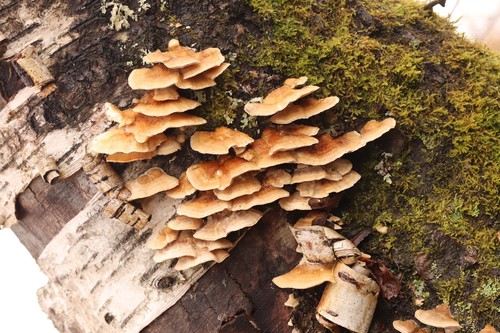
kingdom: Fungi
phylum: Basidiomycota
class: Agaricomycetes
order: Polyporales
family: Polyporaceae
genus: Trametes
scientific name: Trametes ochracea
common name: Ochre bracket
